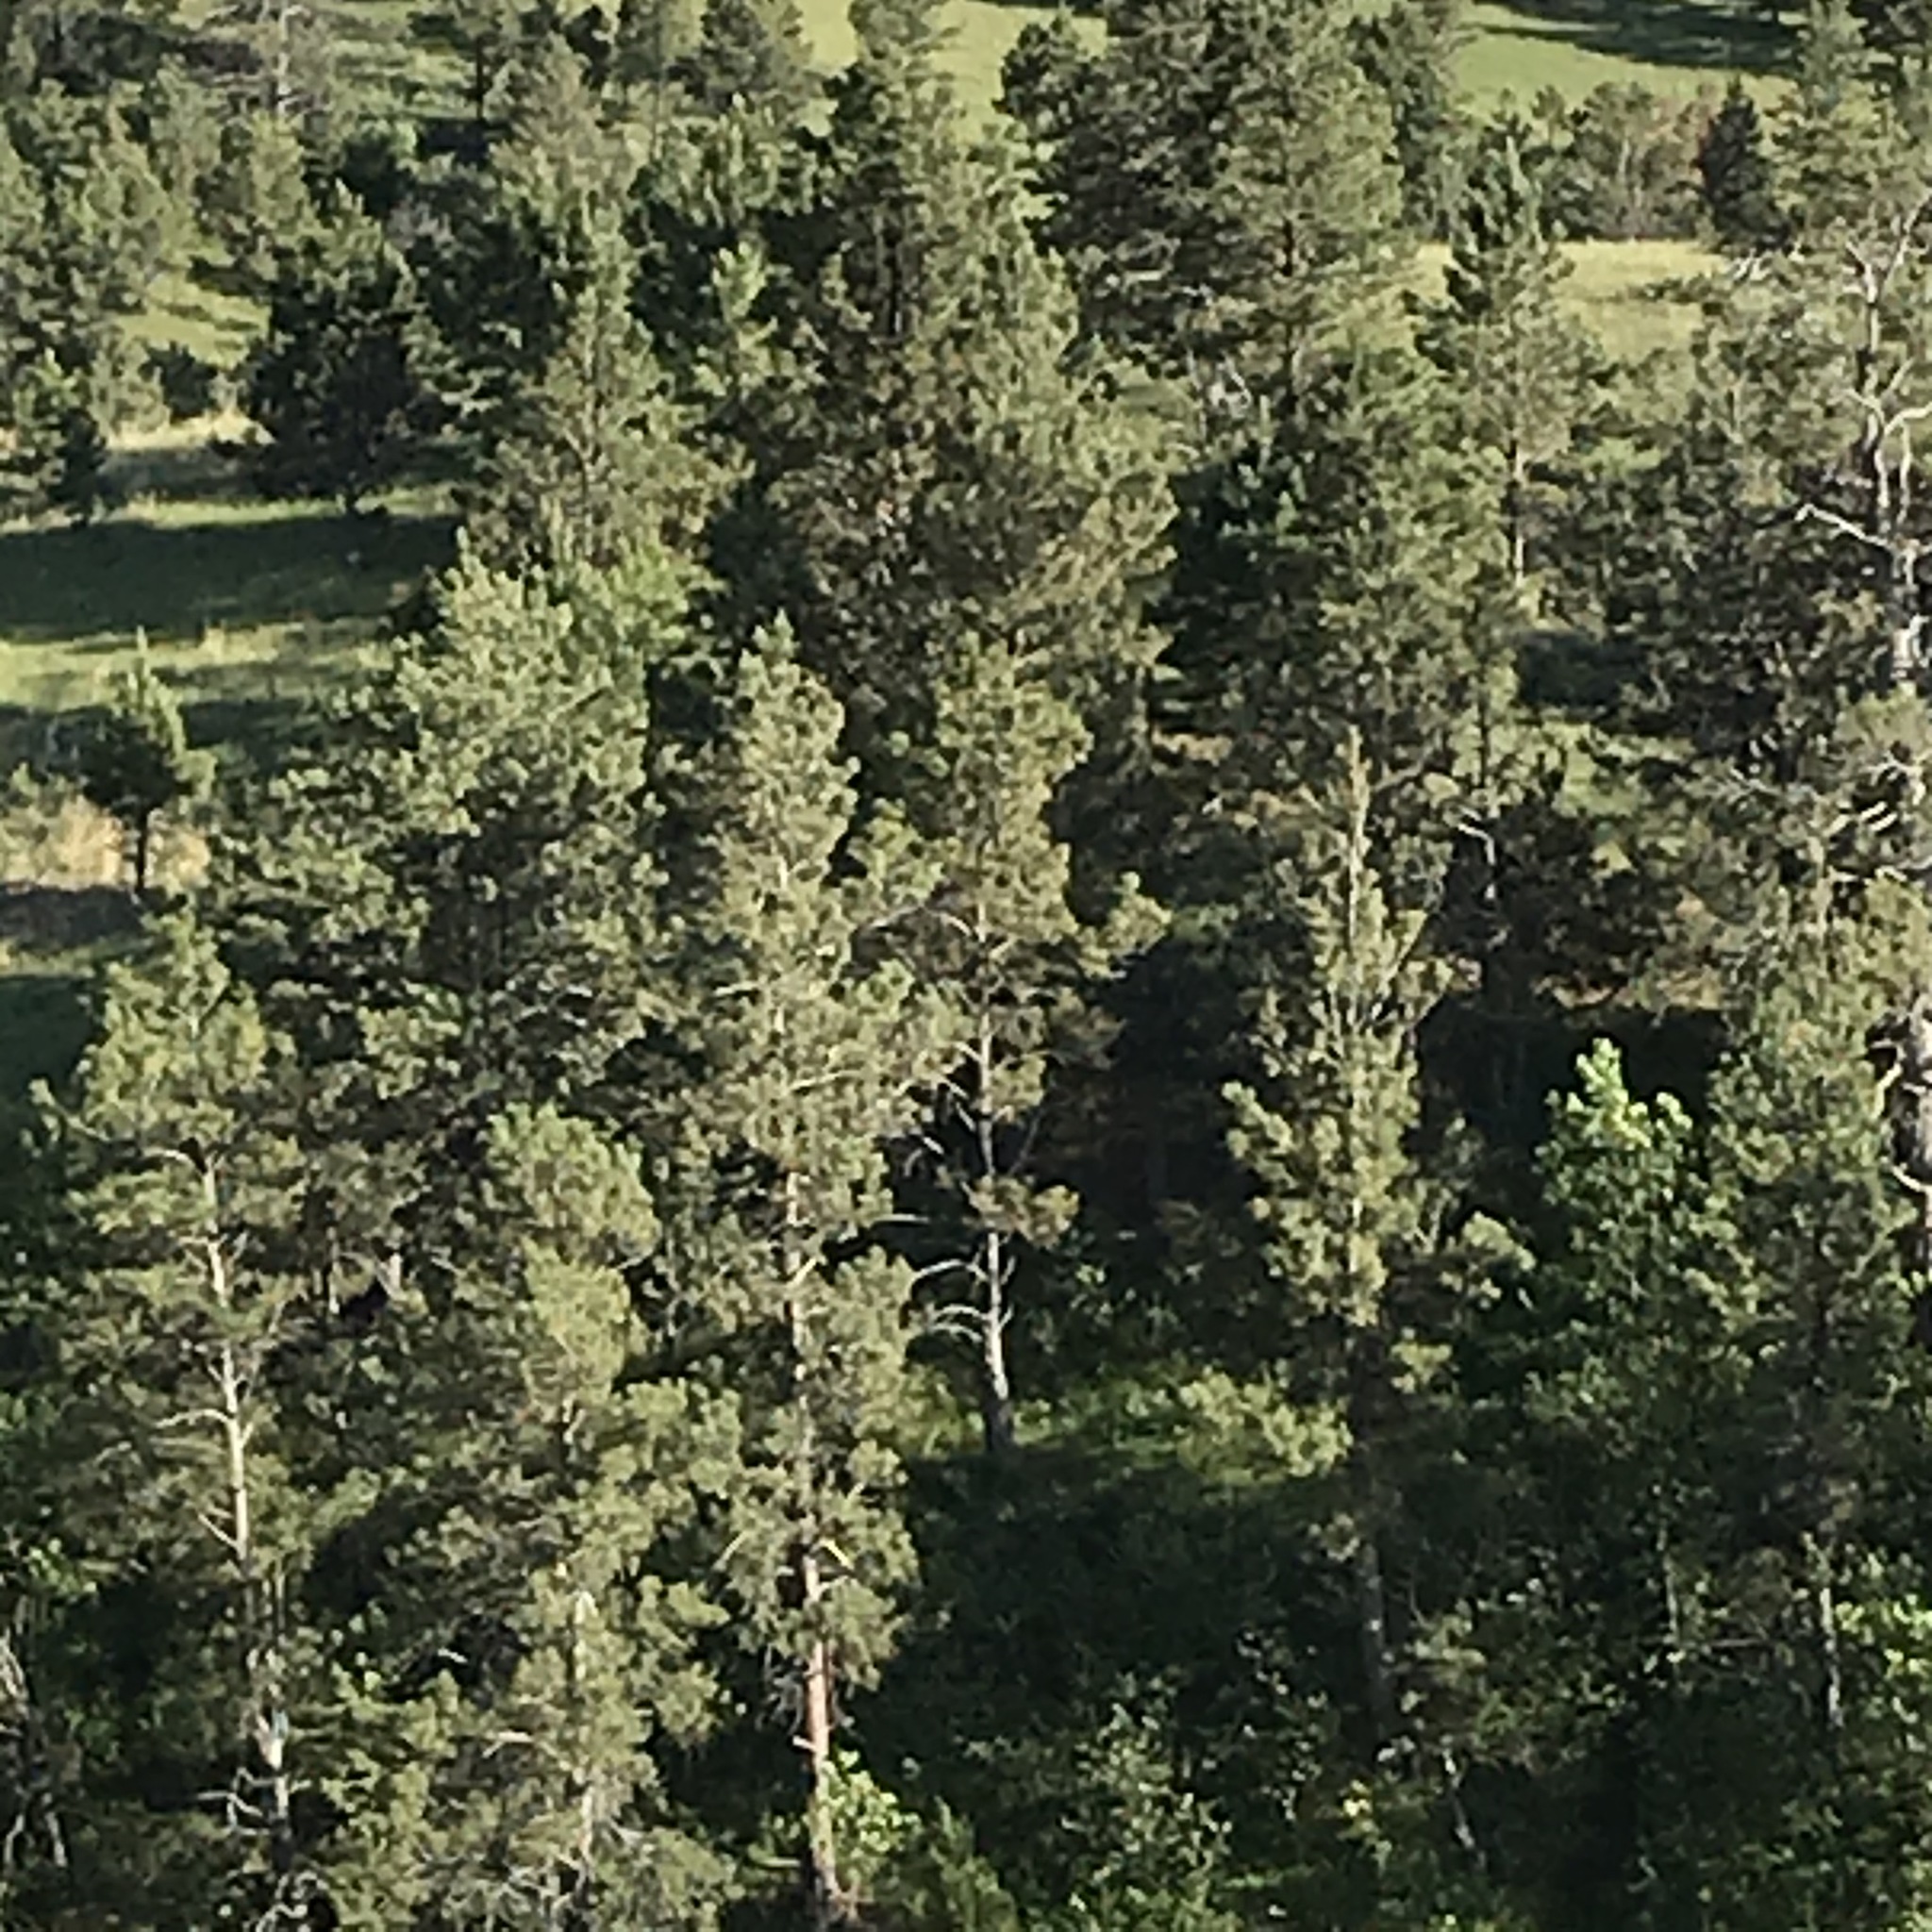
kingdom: Plantae
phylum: Tracheophyta
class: Pinopsida
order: Pinales
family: Pinaceae
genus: Pinus
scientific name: Pinus ponderosa
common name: Western yellow-pine
